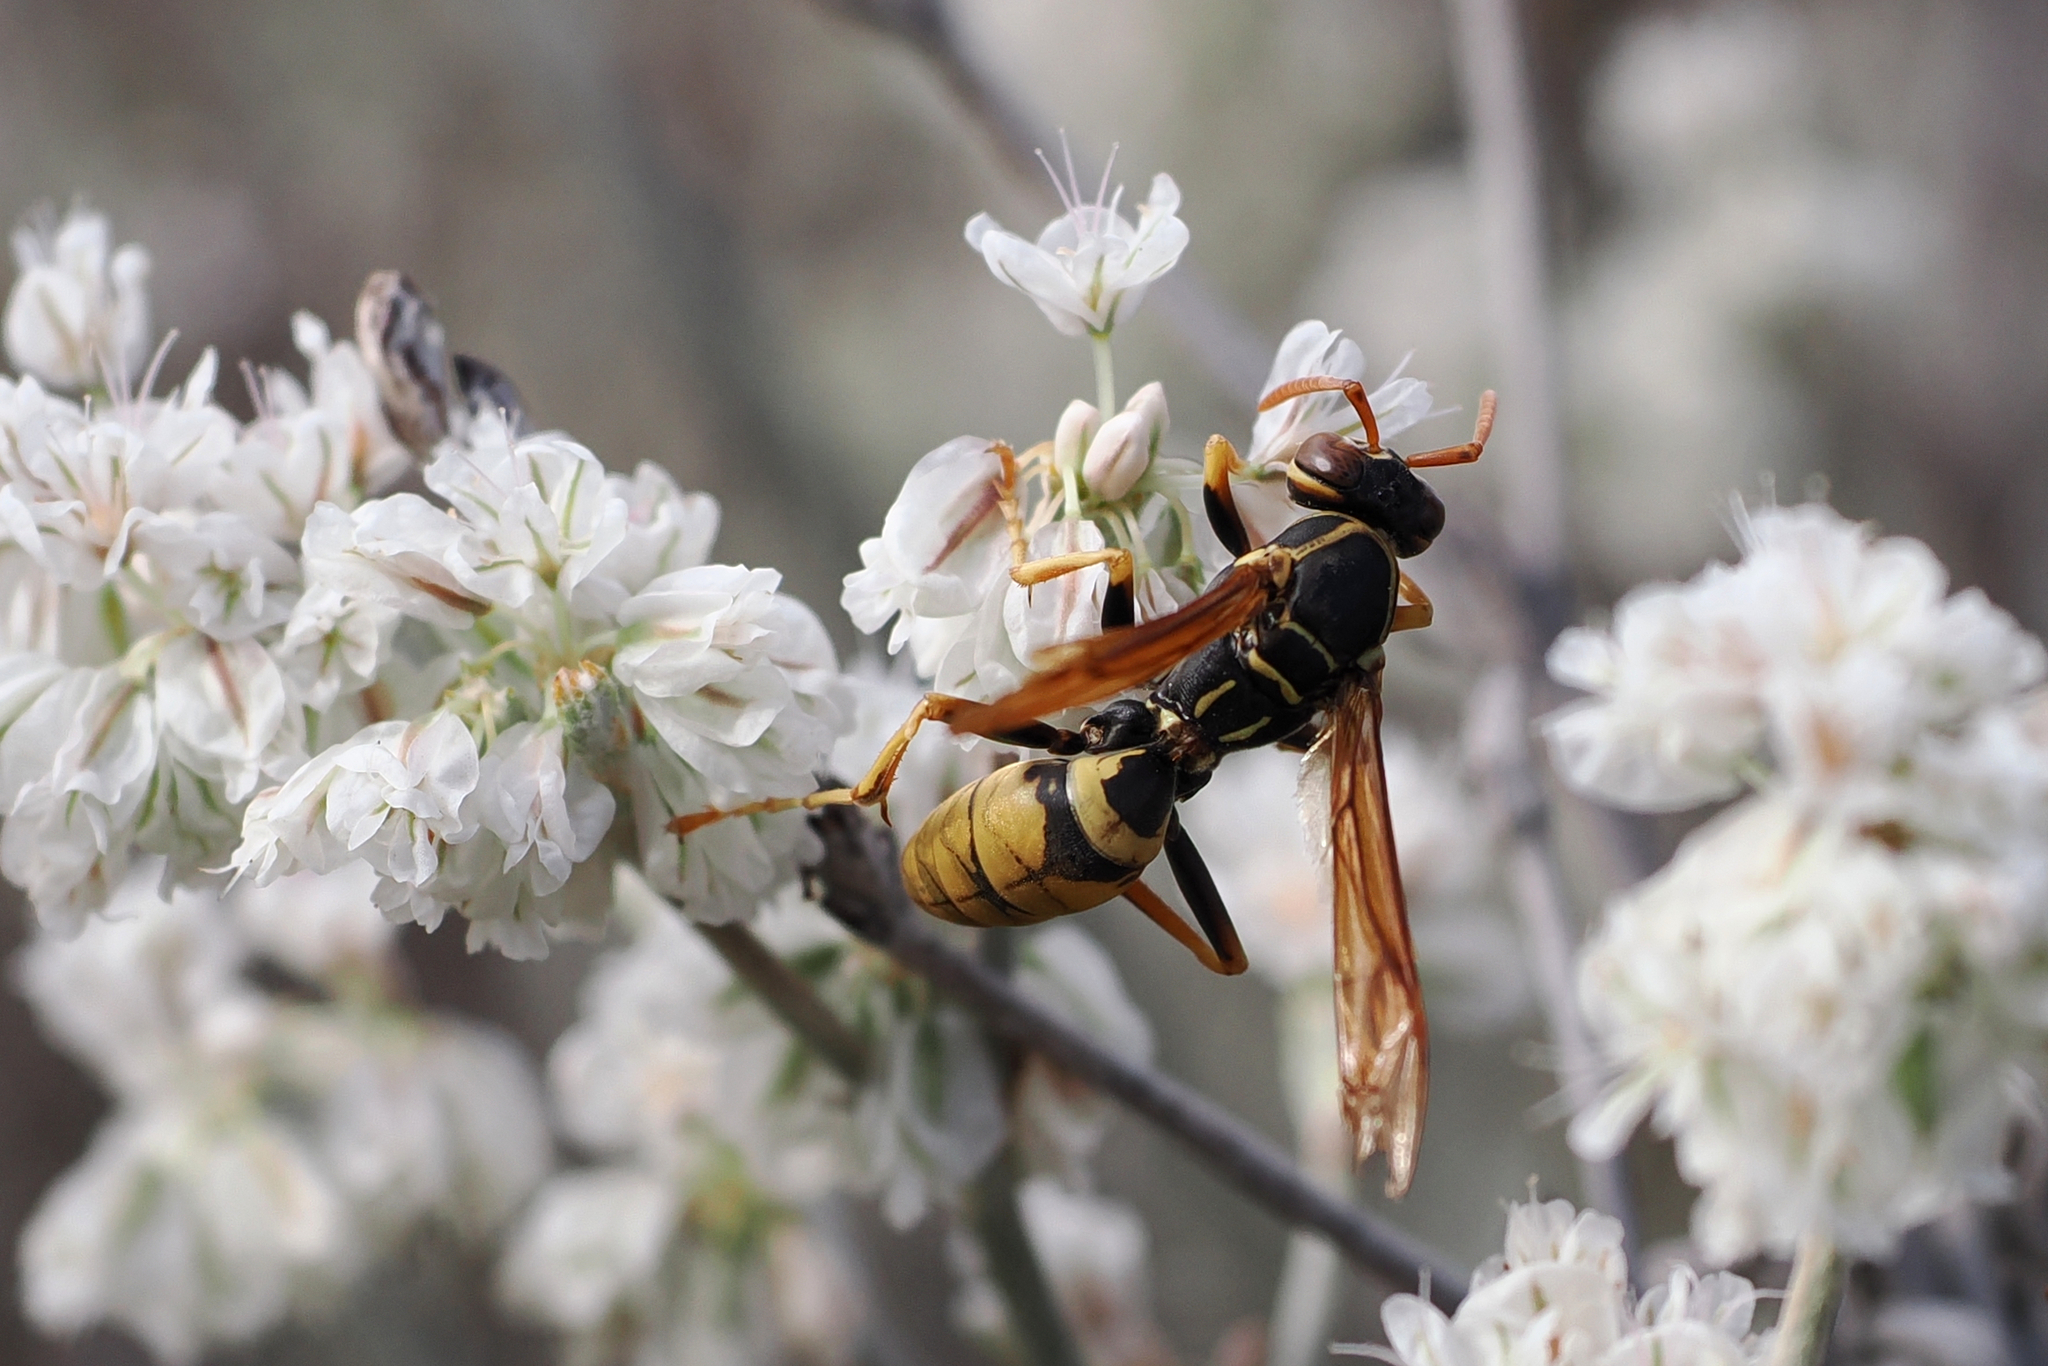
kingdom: Animalia
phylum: Arthropoda
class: Insecta
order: Hymenoptera
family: Eumenidae
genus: Polistes
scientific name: Polistes aurifer
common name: Paper wasp
